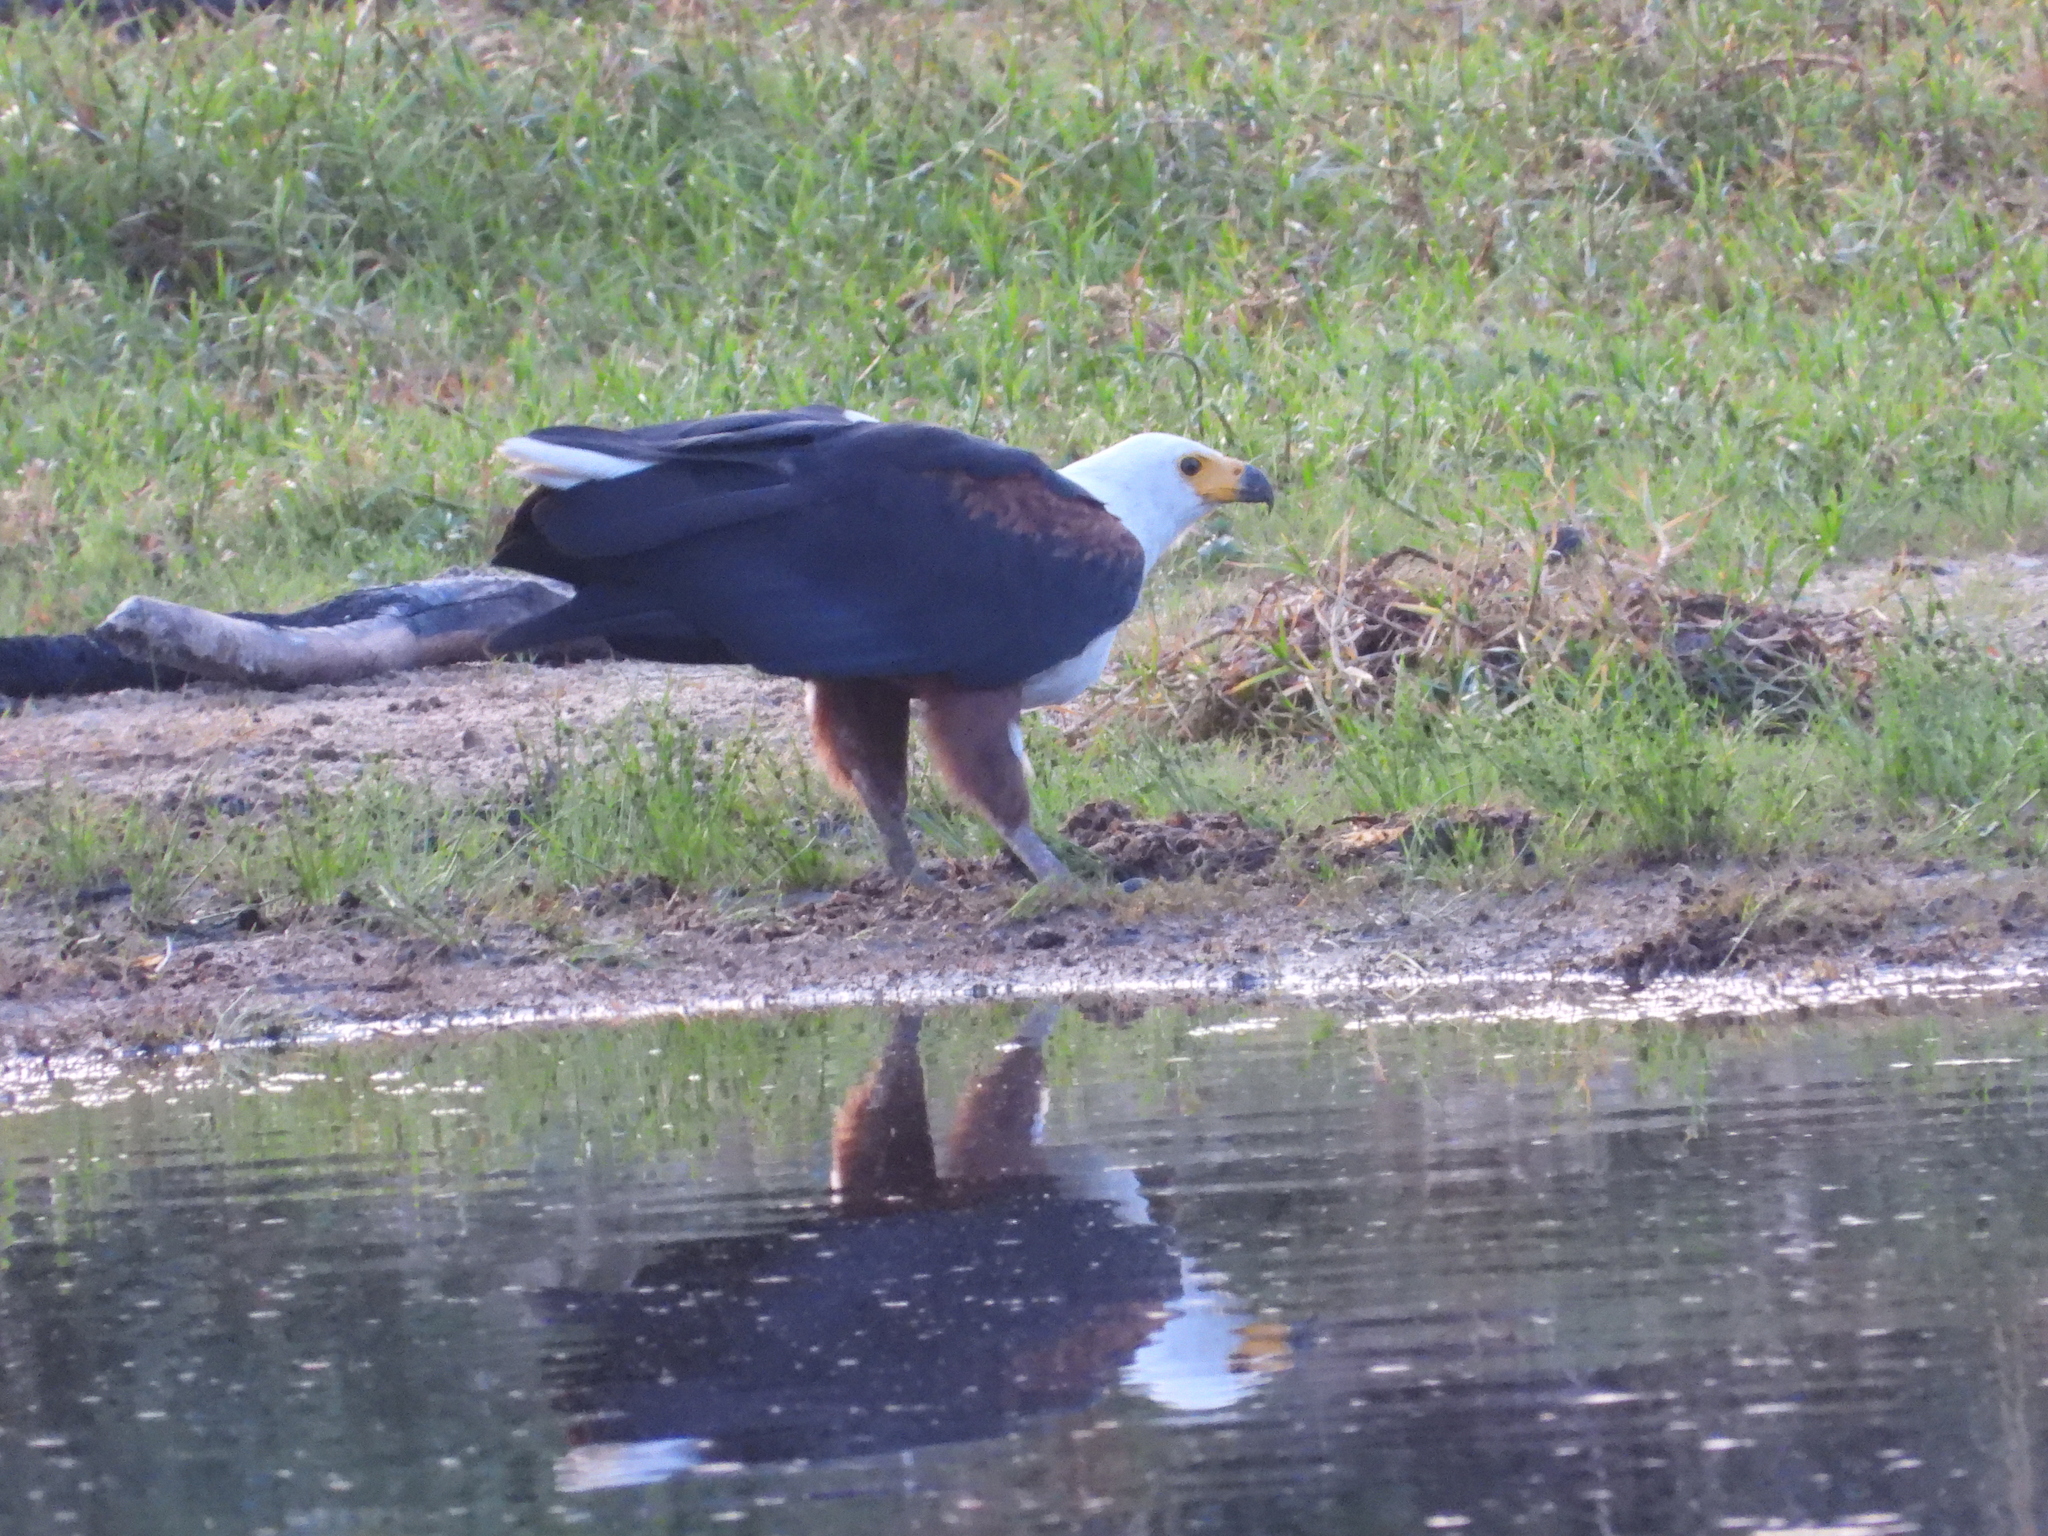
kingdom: Animalia
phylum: Chordata
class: Aves
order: Accipitriformes
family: Accipitridae
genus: Haliaeetus
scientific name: Haliaeetus vocifer
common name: African fish eagle
